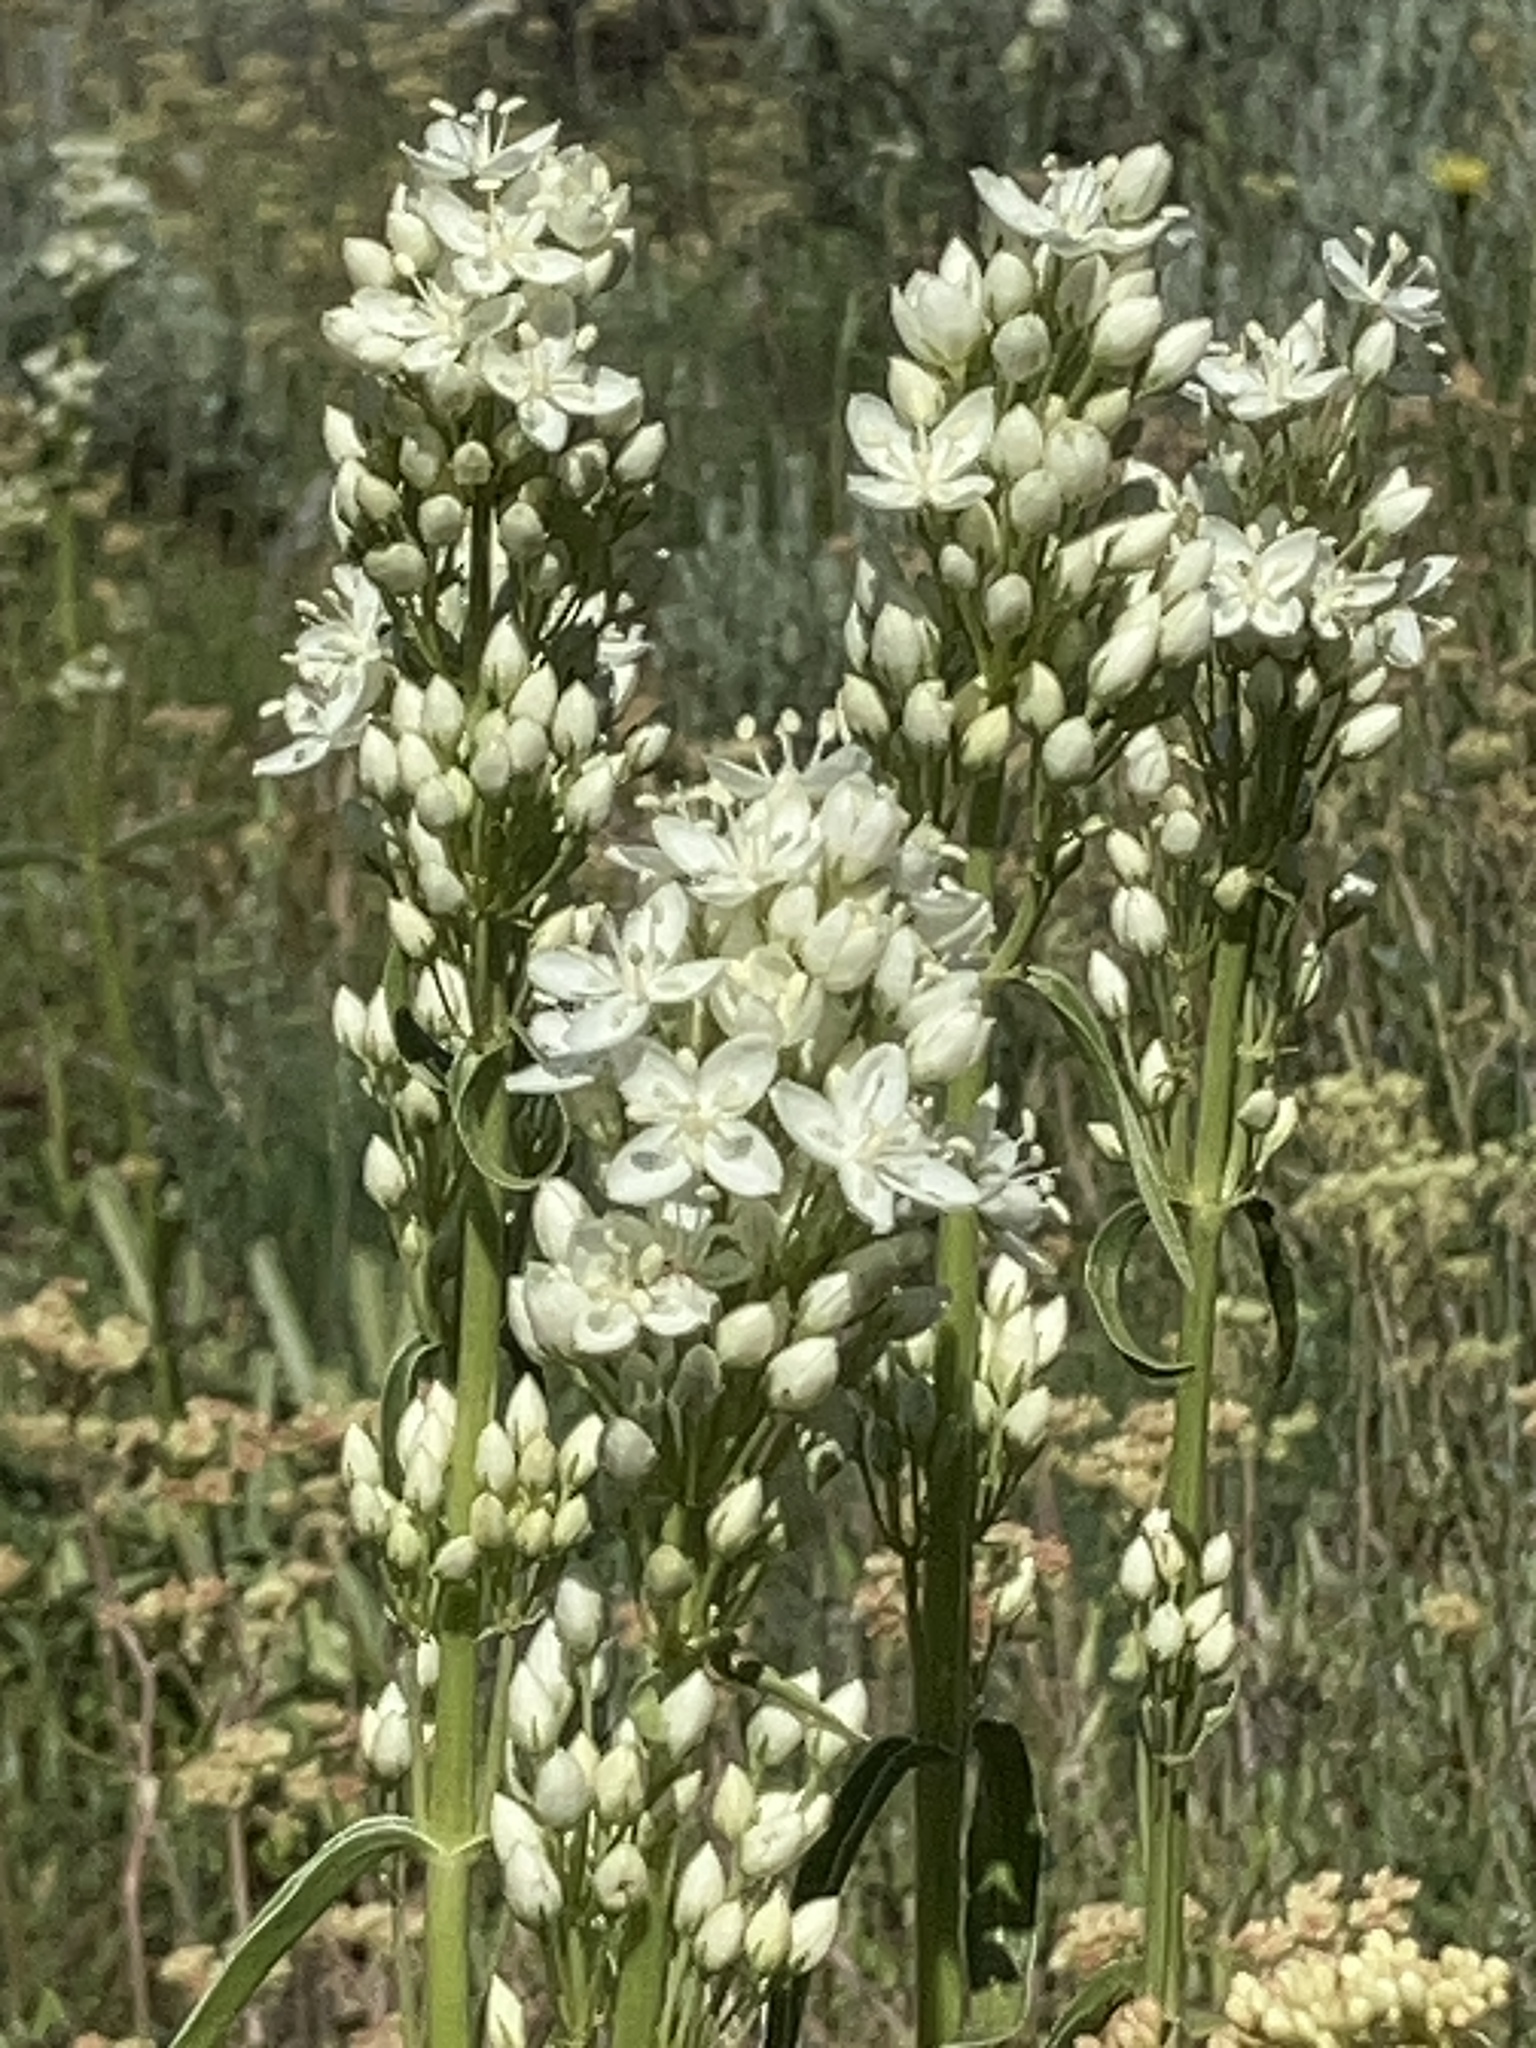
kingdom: Plantae
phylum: Tracheophyta
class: Magnoliopsida
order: Gentianales
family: Gentianaceae
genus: Frasera
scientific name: Frasera montana
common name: White frasera
